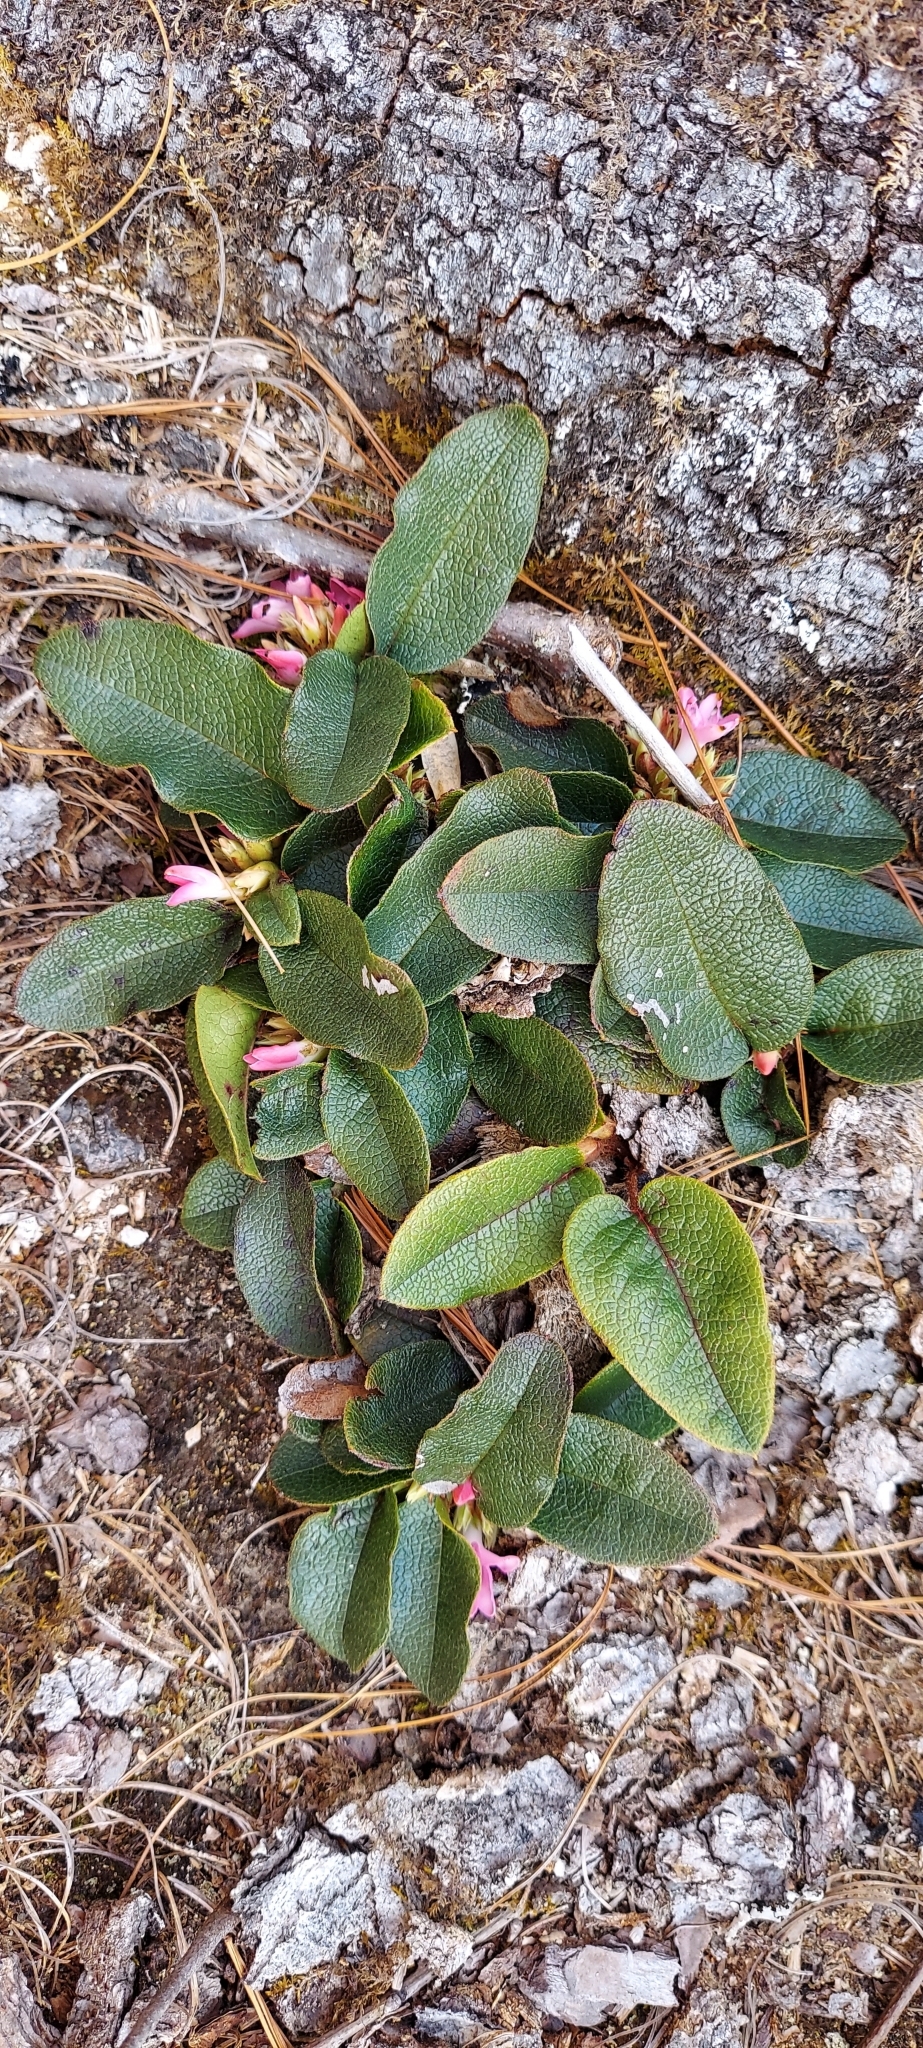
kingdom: Plantae
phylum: Tracheophyta
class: Magnoliopsida
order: Ericales
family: Ericaceae
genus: Epigaea
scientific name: Epigaea repens
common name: Gravelroot
